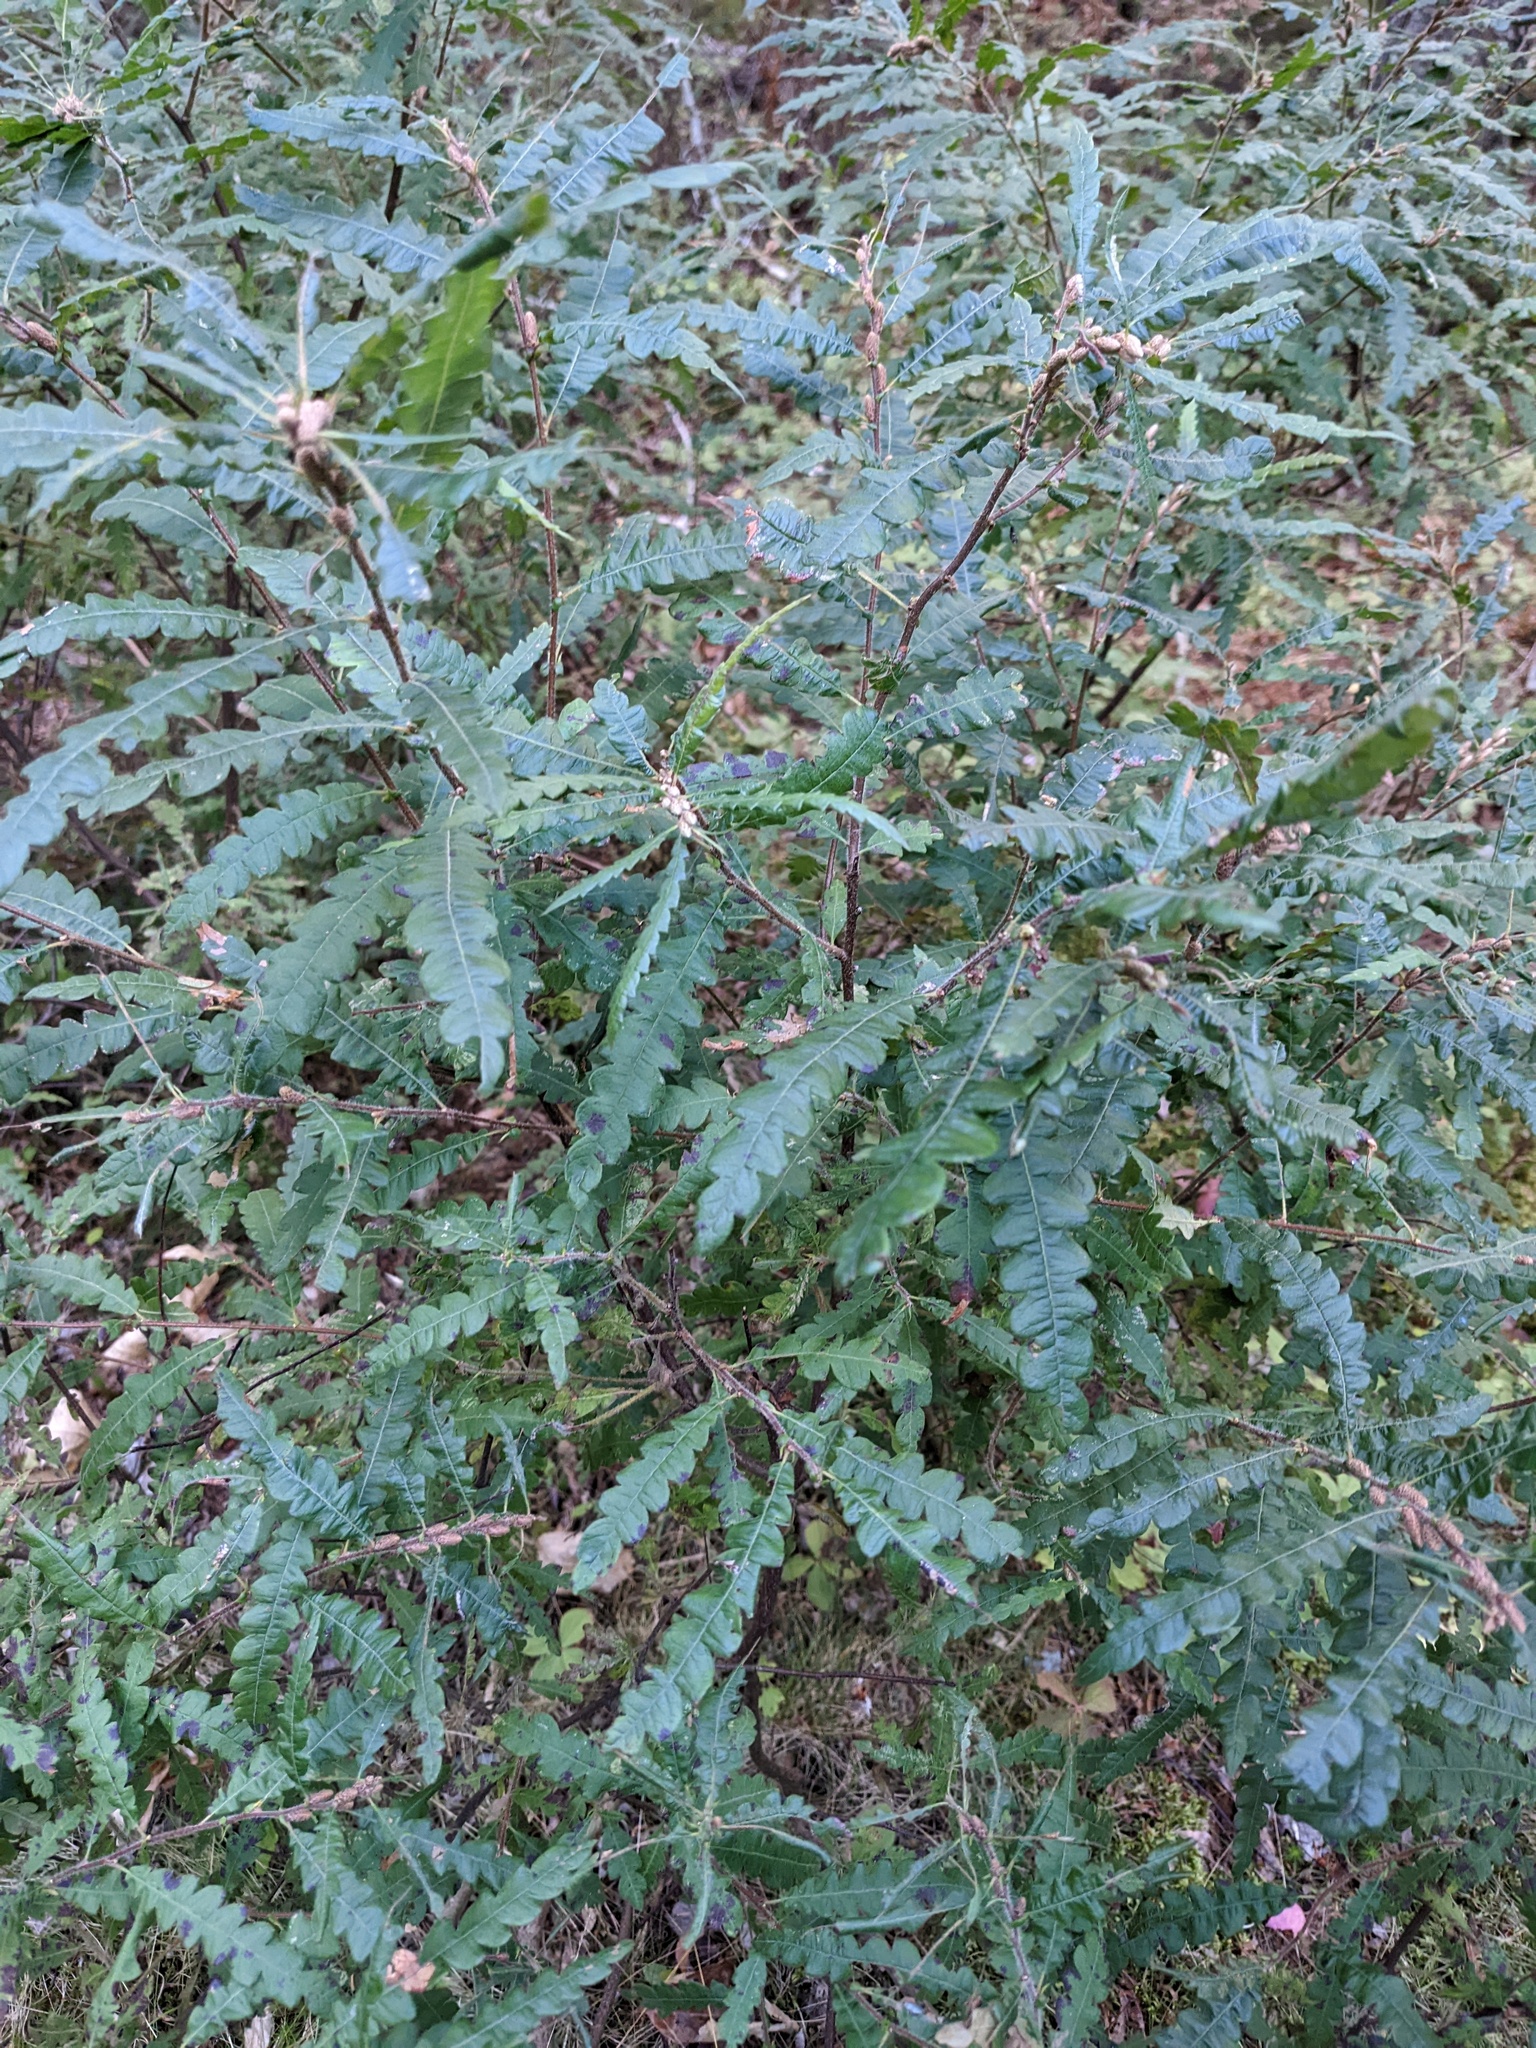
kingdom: Plantae
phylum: Tracheophyta
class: Magnoliopsida
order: Fagales
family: Myricaceae
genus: Comptonia
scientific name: Comptonia peregrina
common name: Sweet-fern
